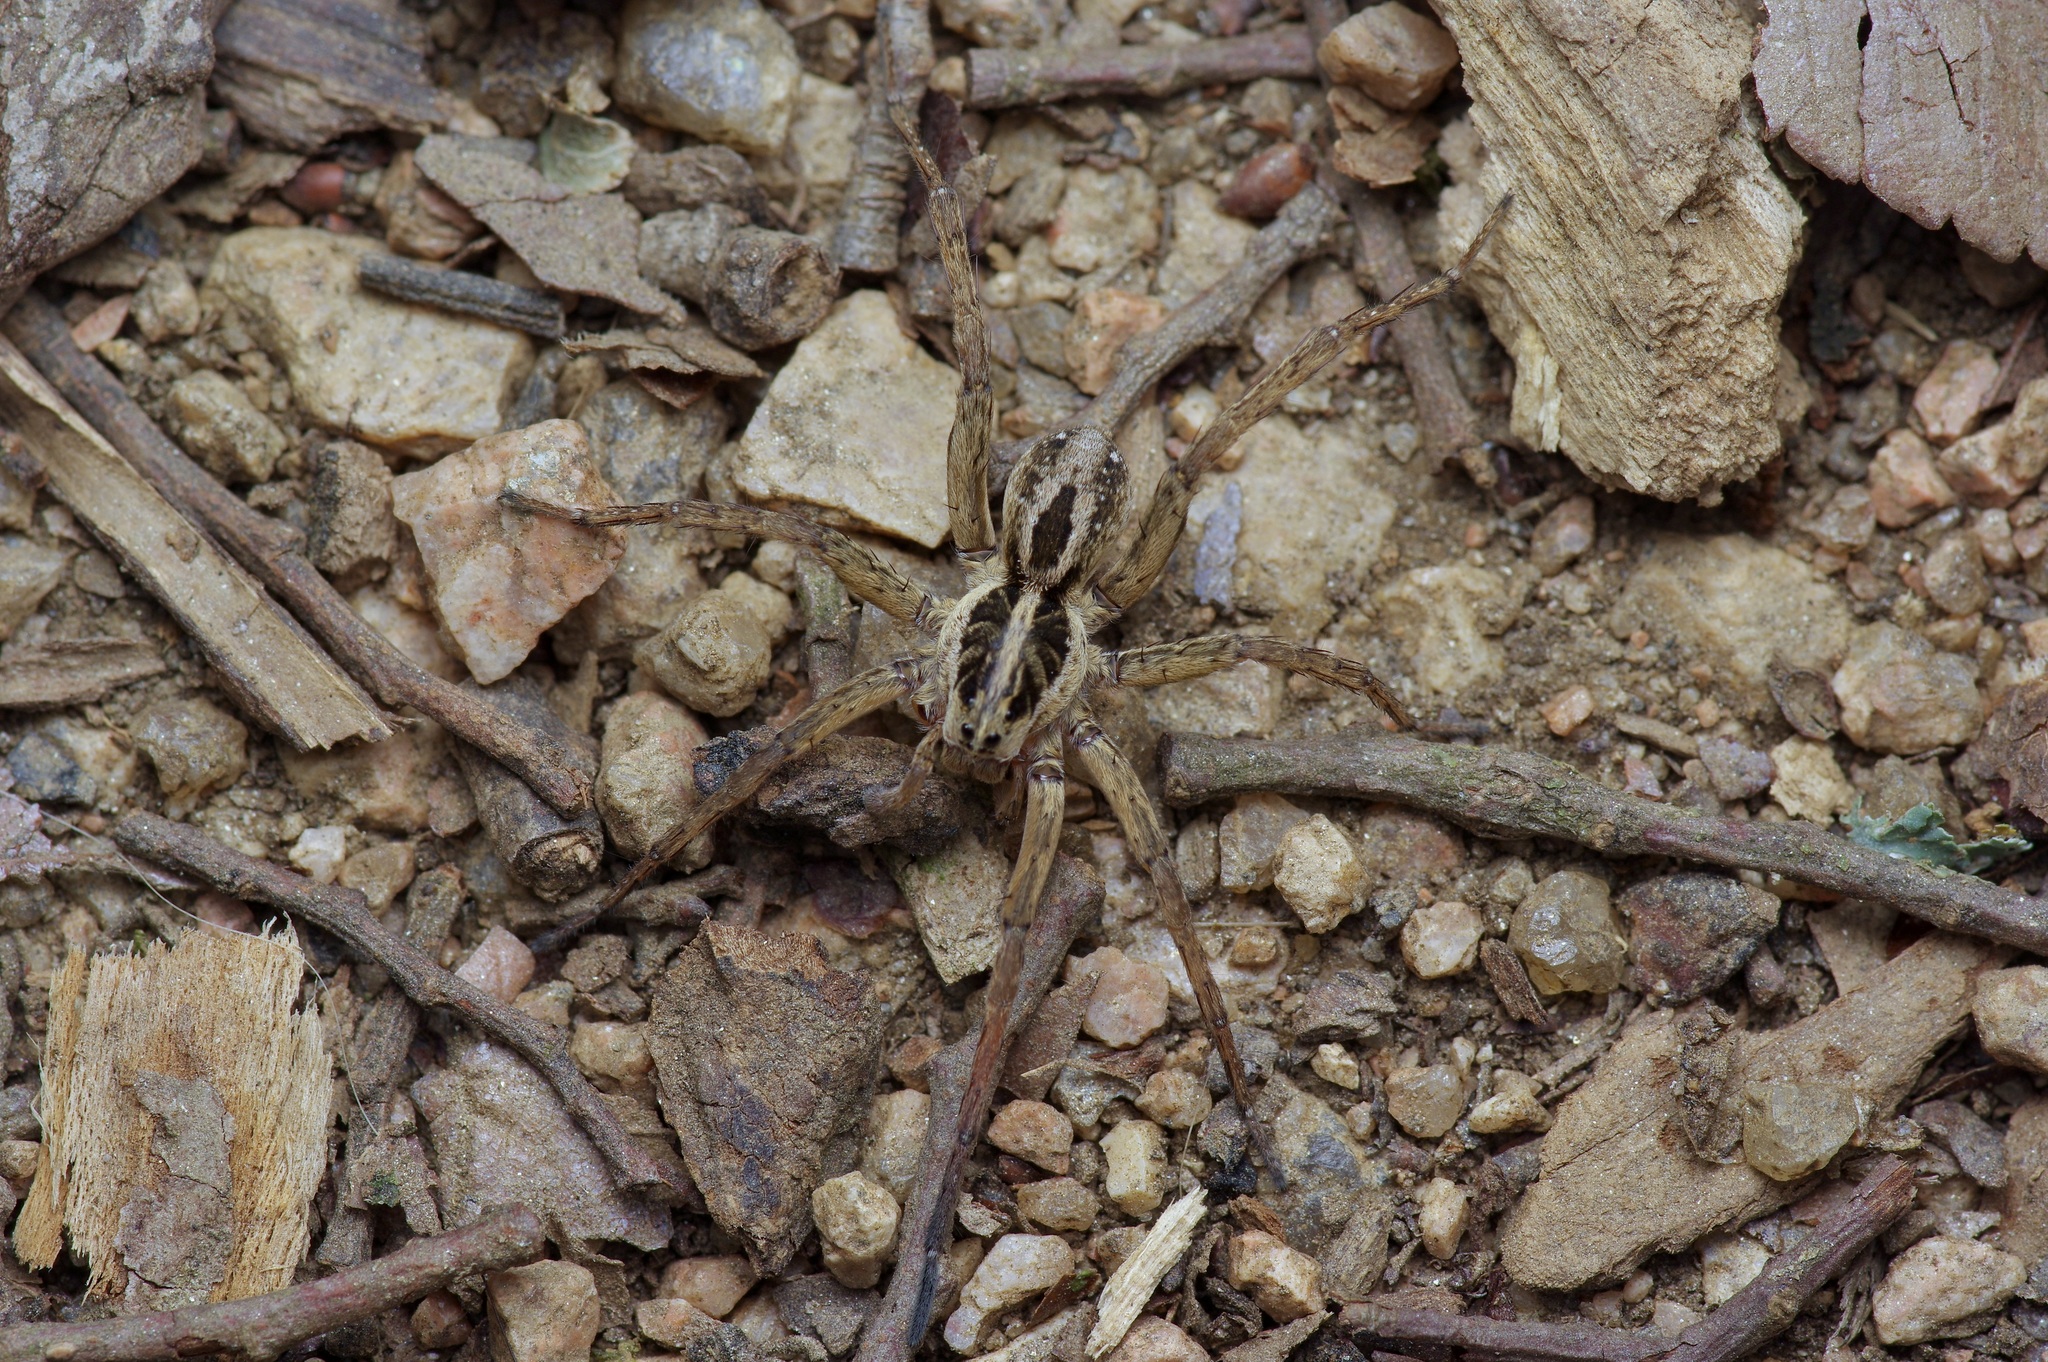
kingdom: Animalia
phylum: Arthropoda
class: Arachnida
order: Araneae
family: Lycosidae
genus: Tigrosa
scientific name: Tigrosa annexa
